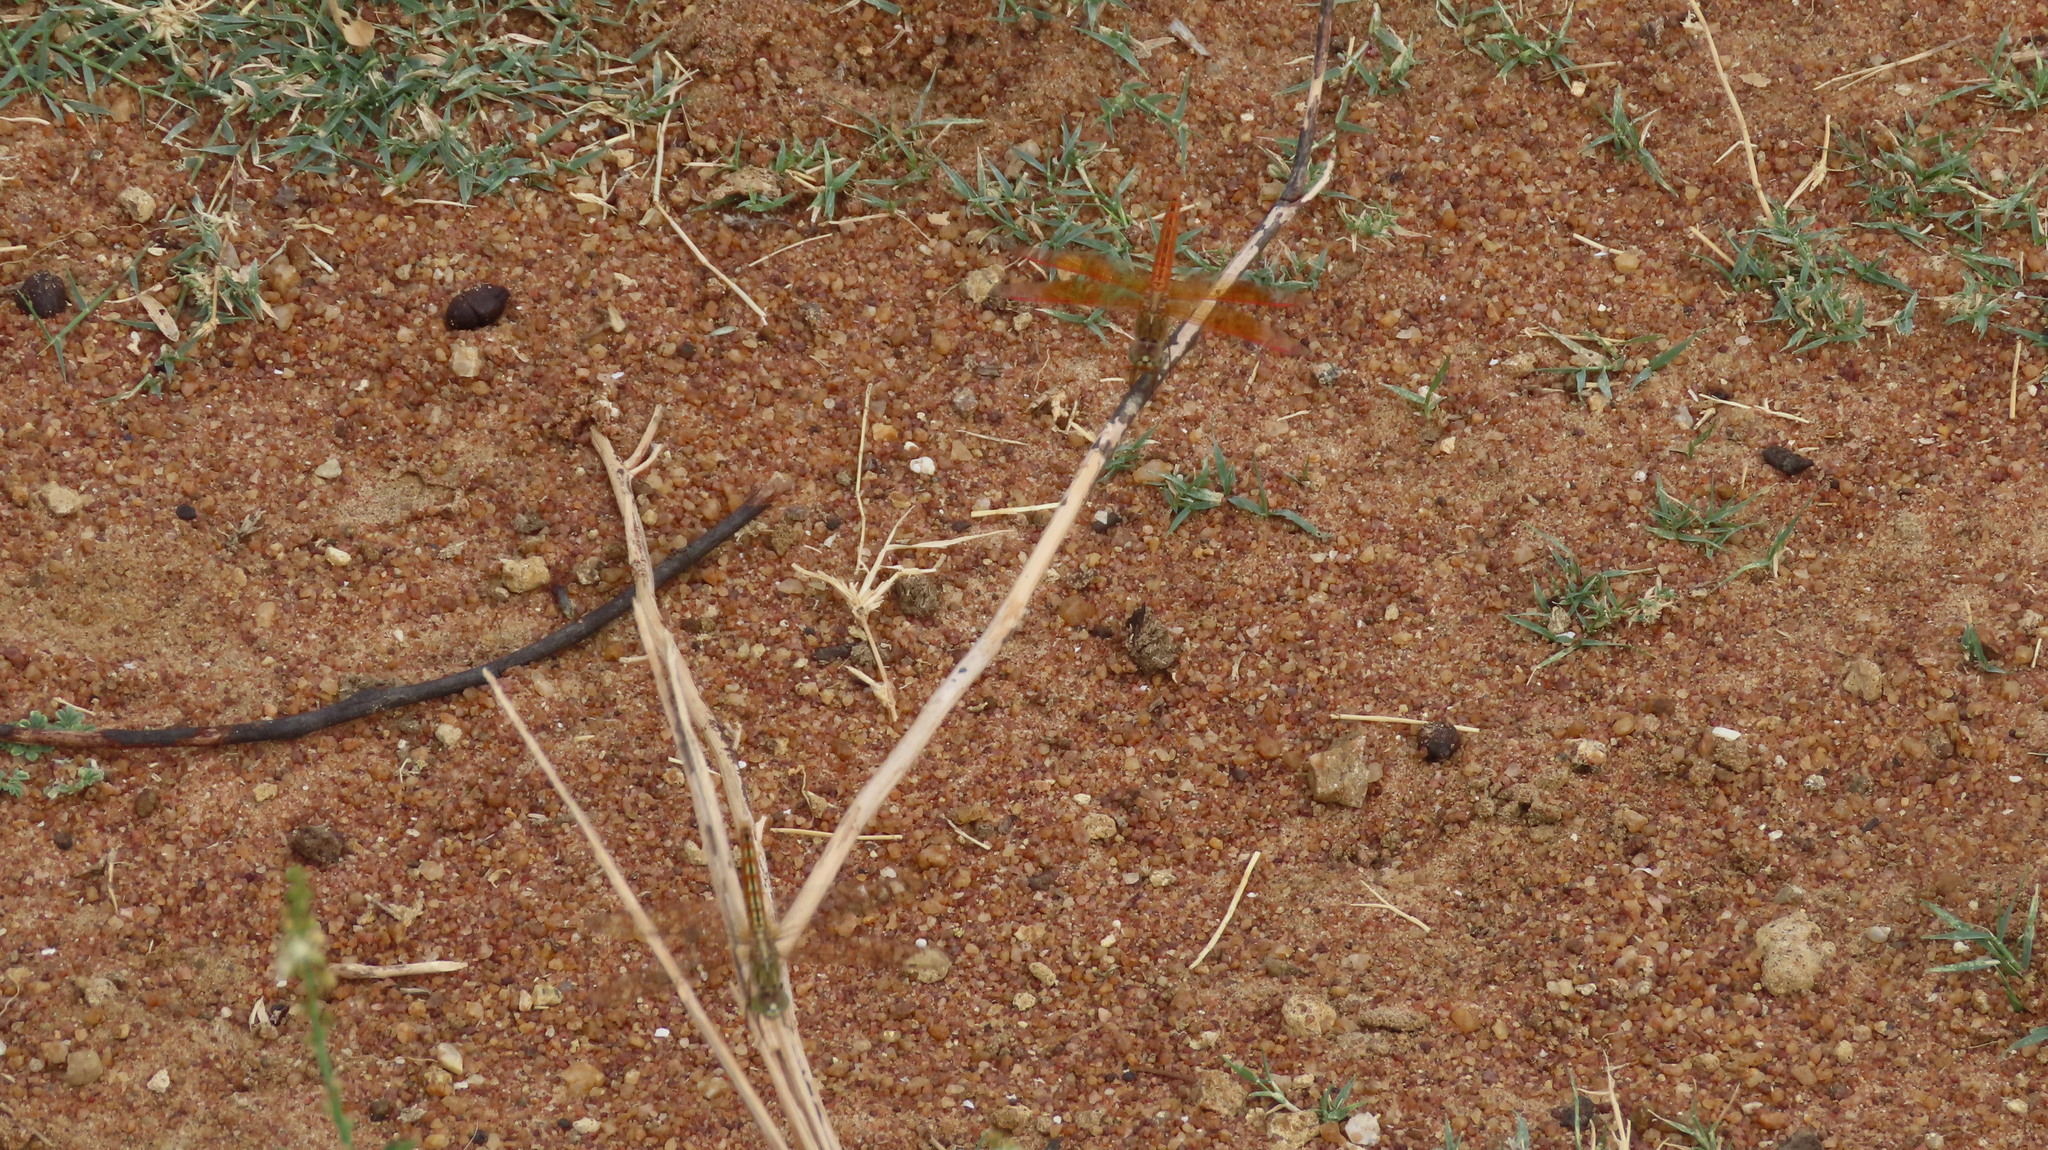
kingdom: Animalia
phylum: Arthropoda
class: Insecta
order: Odonata
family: Libellulidae
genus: Brachythemis
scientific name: Brachythemis contaminata
